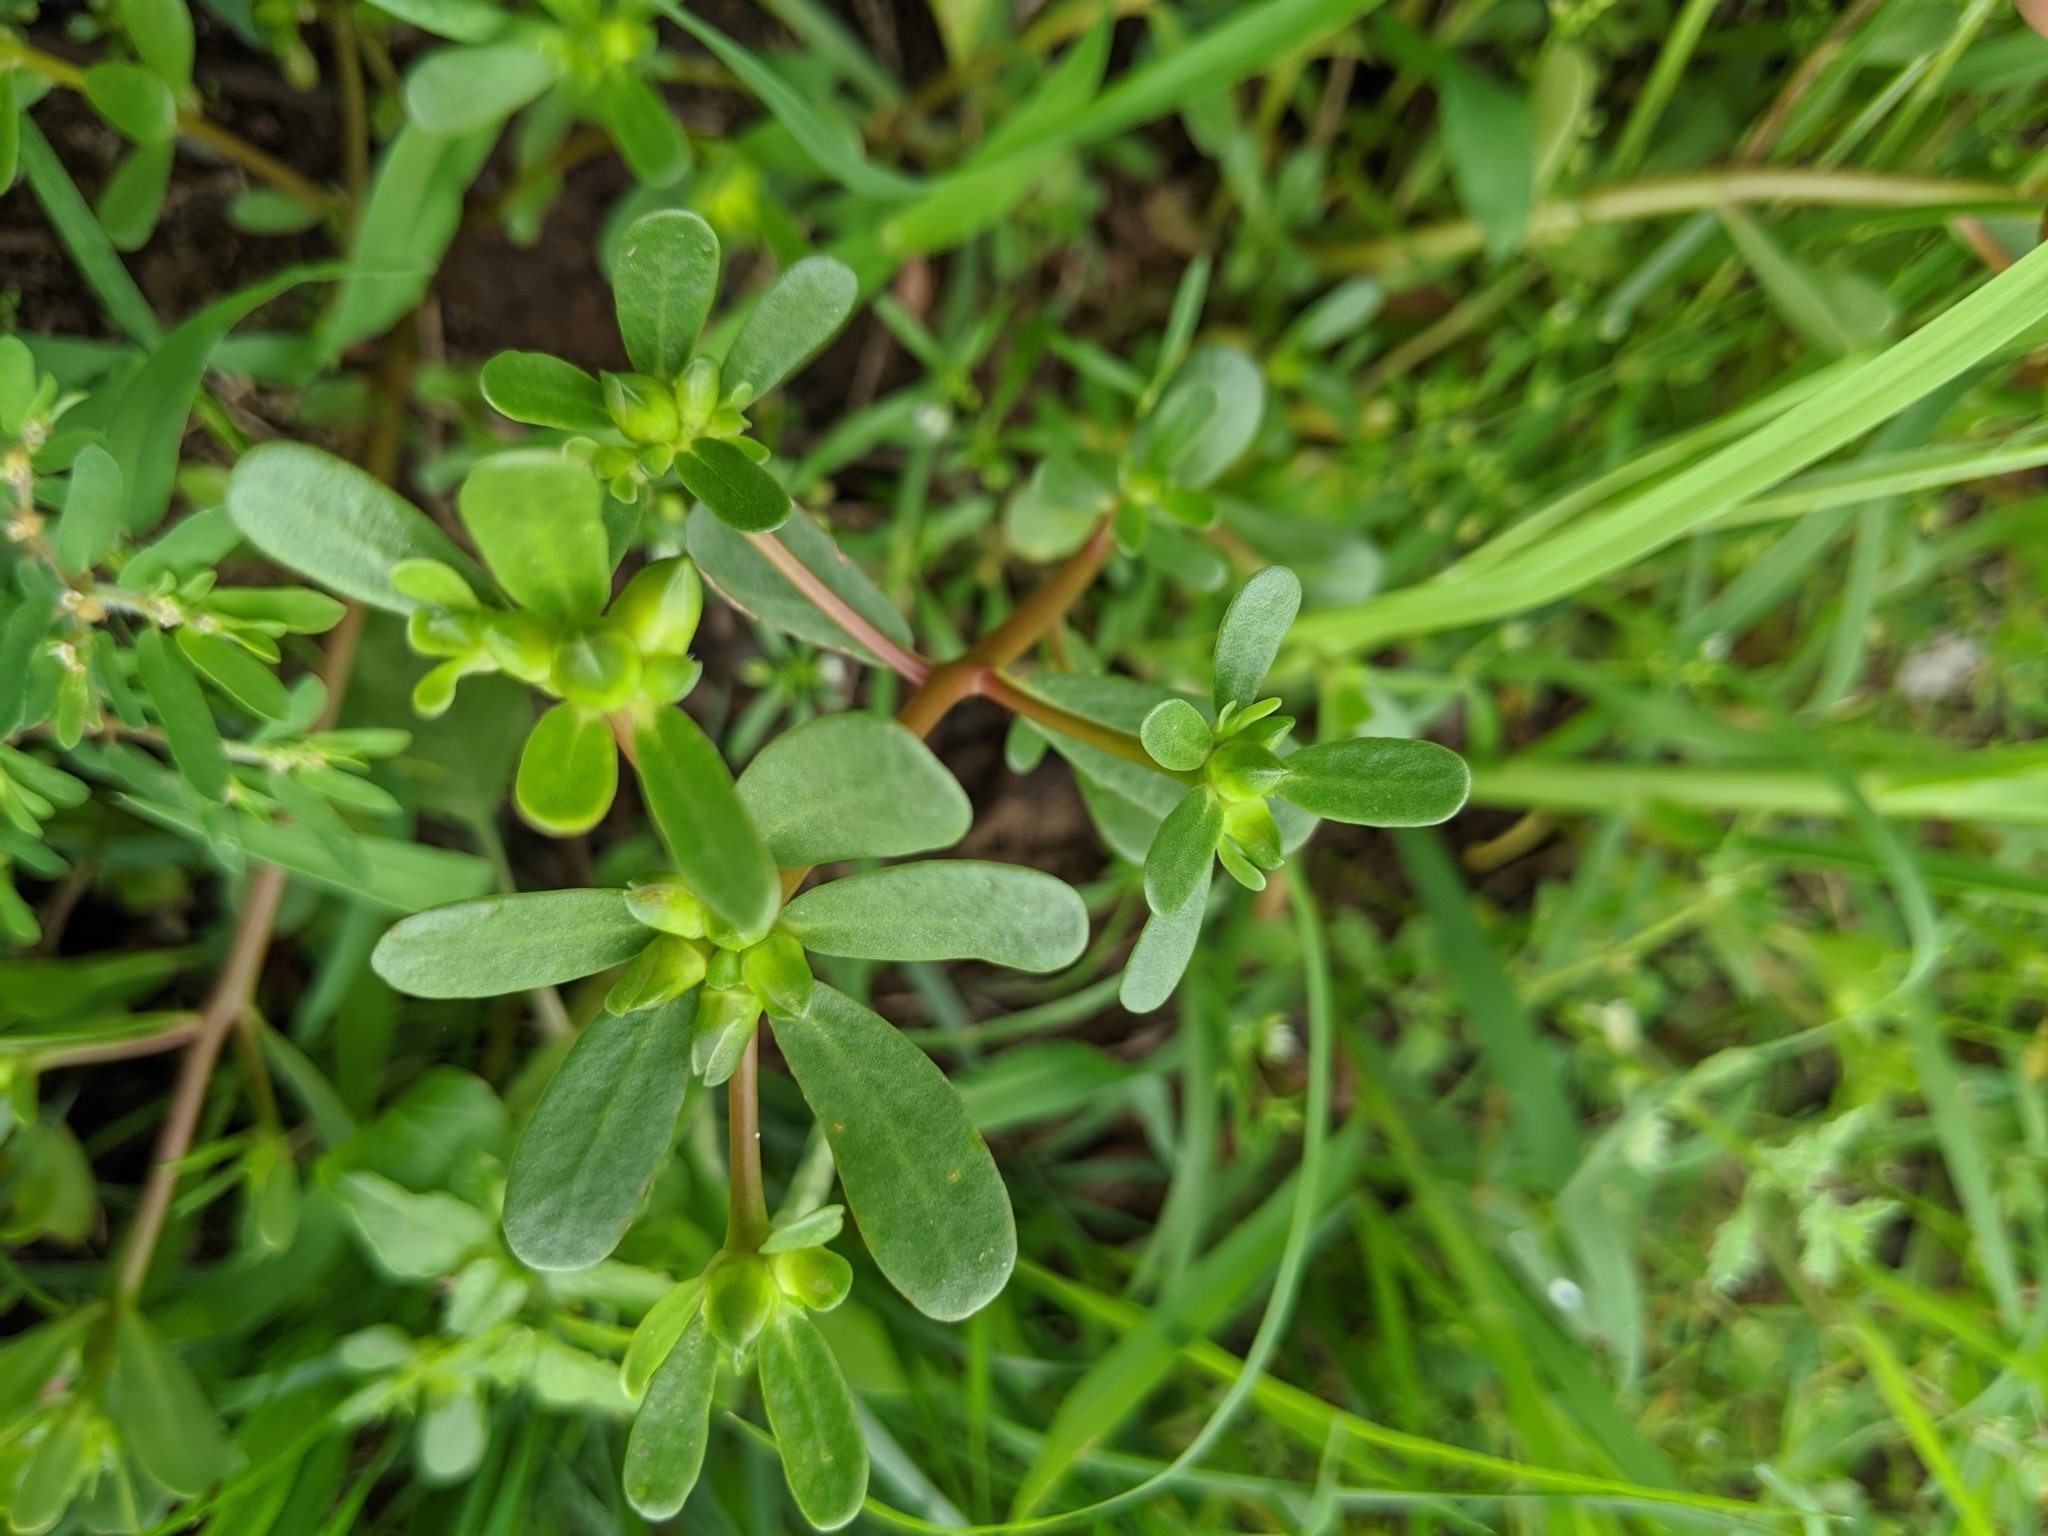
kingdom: Plantae
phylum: Tracheophyta
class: Magnoliopsida
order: Caryophyllales
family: Portulacaceae
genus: Portulaca
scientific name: Portulaca oleracea
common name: Common purslane
